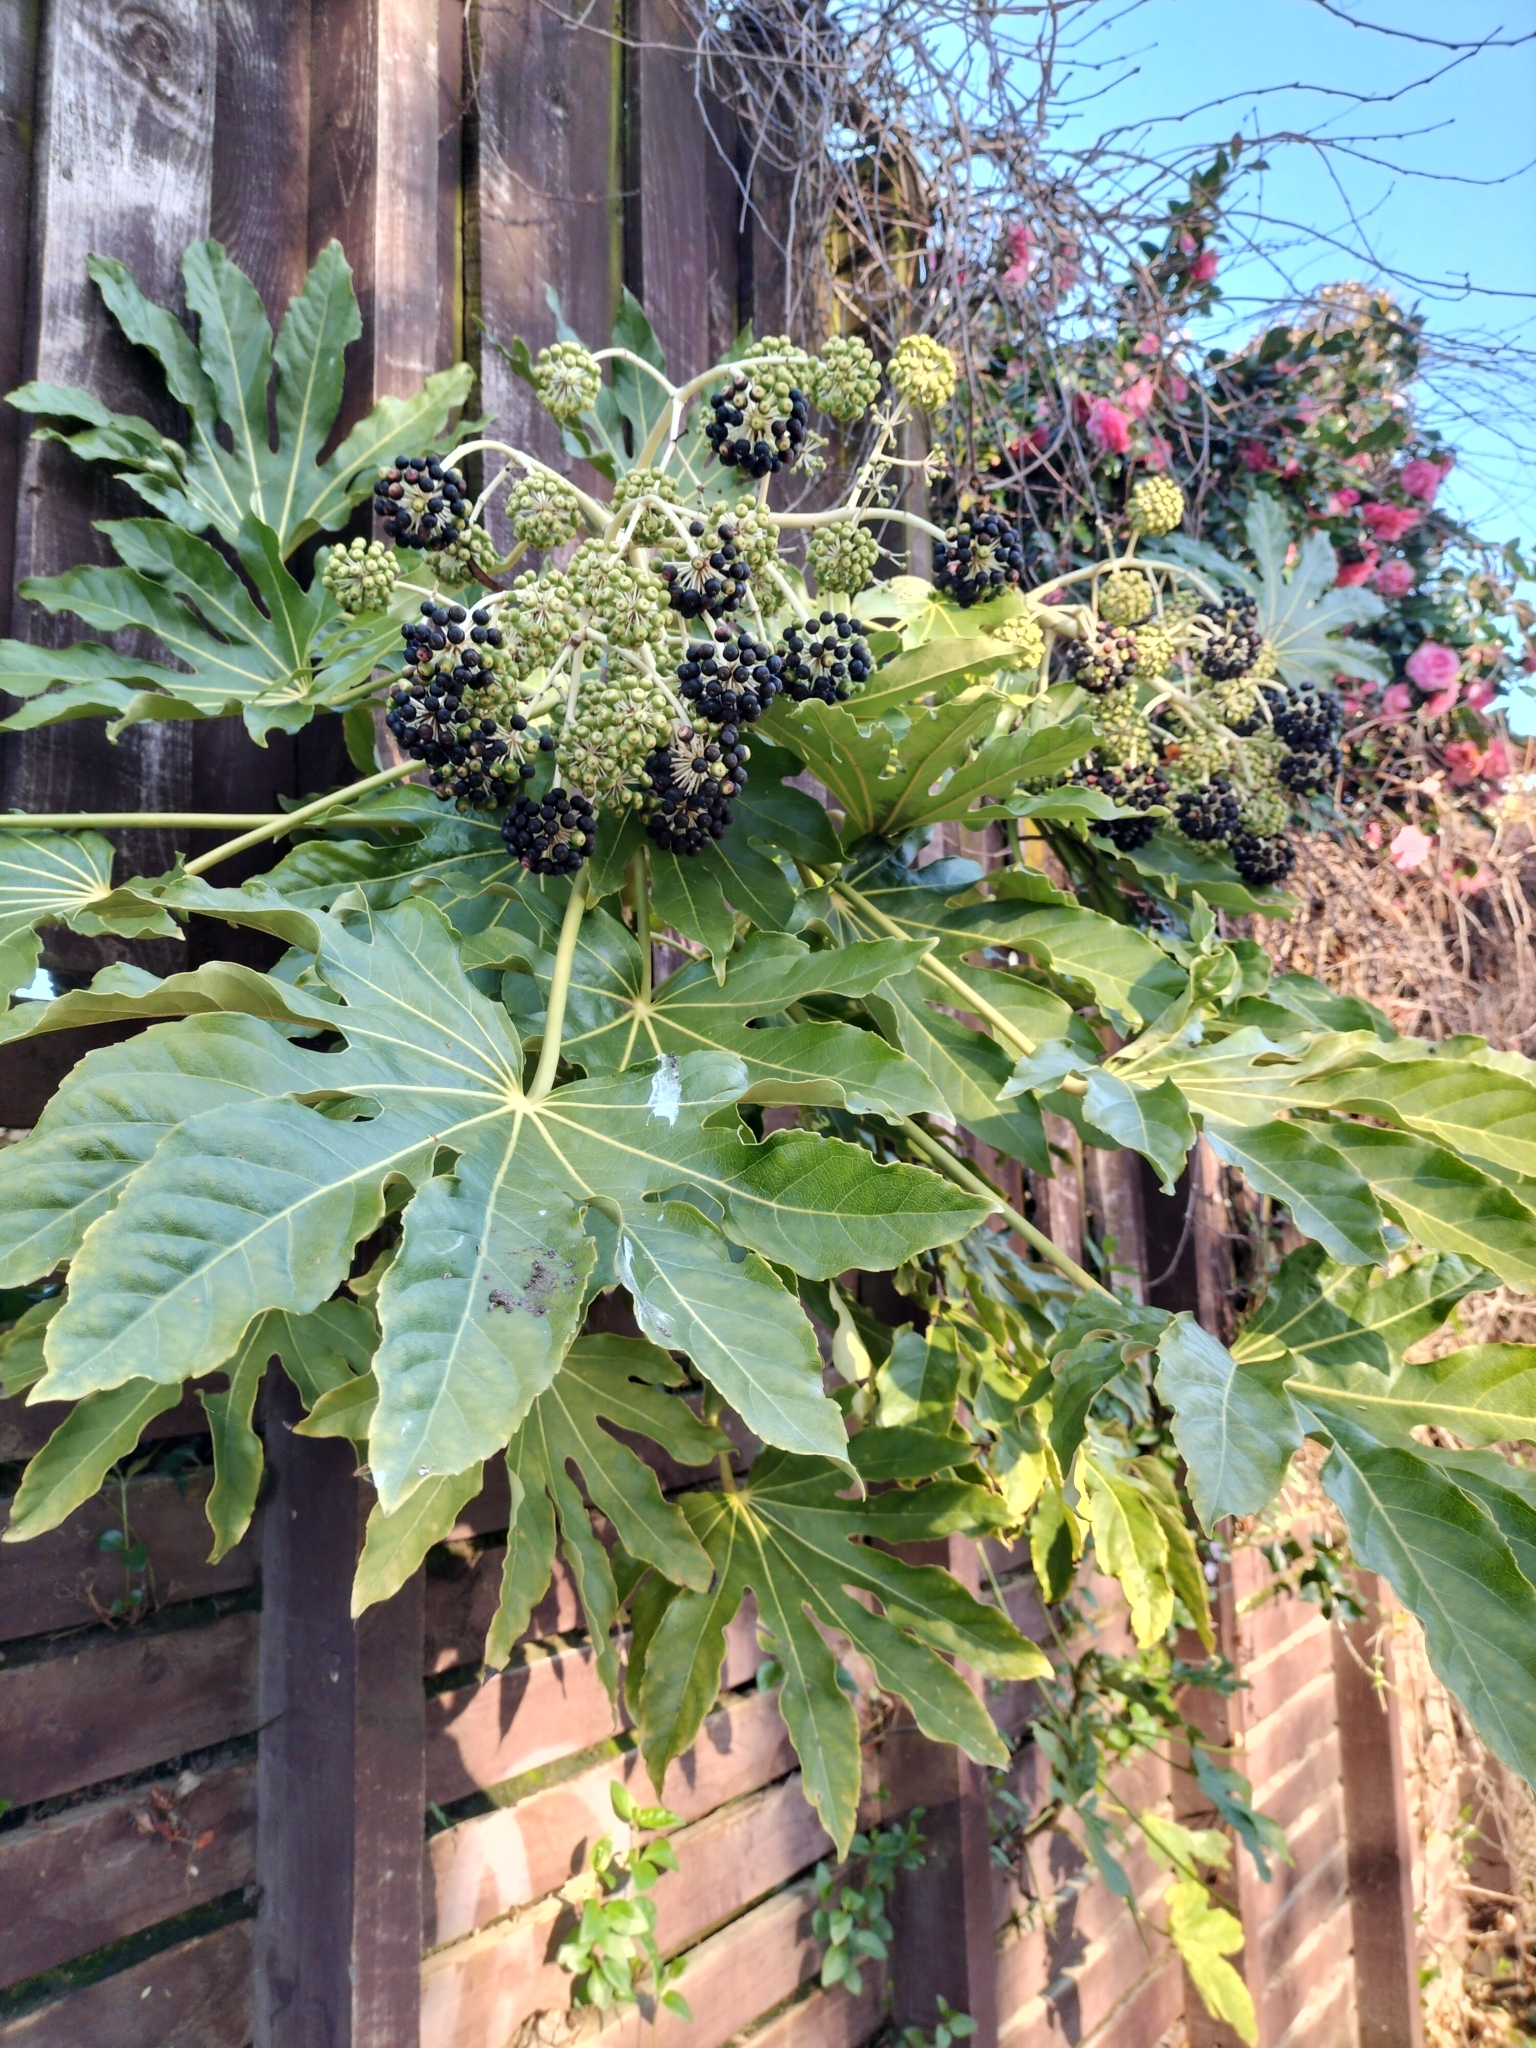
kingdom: Plantae
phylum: Tracheophyta
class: Magnoliopsida
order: Apiales
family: Araliaceae
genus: Fatsia
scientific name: Fatsia japonica
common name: Fatsia
